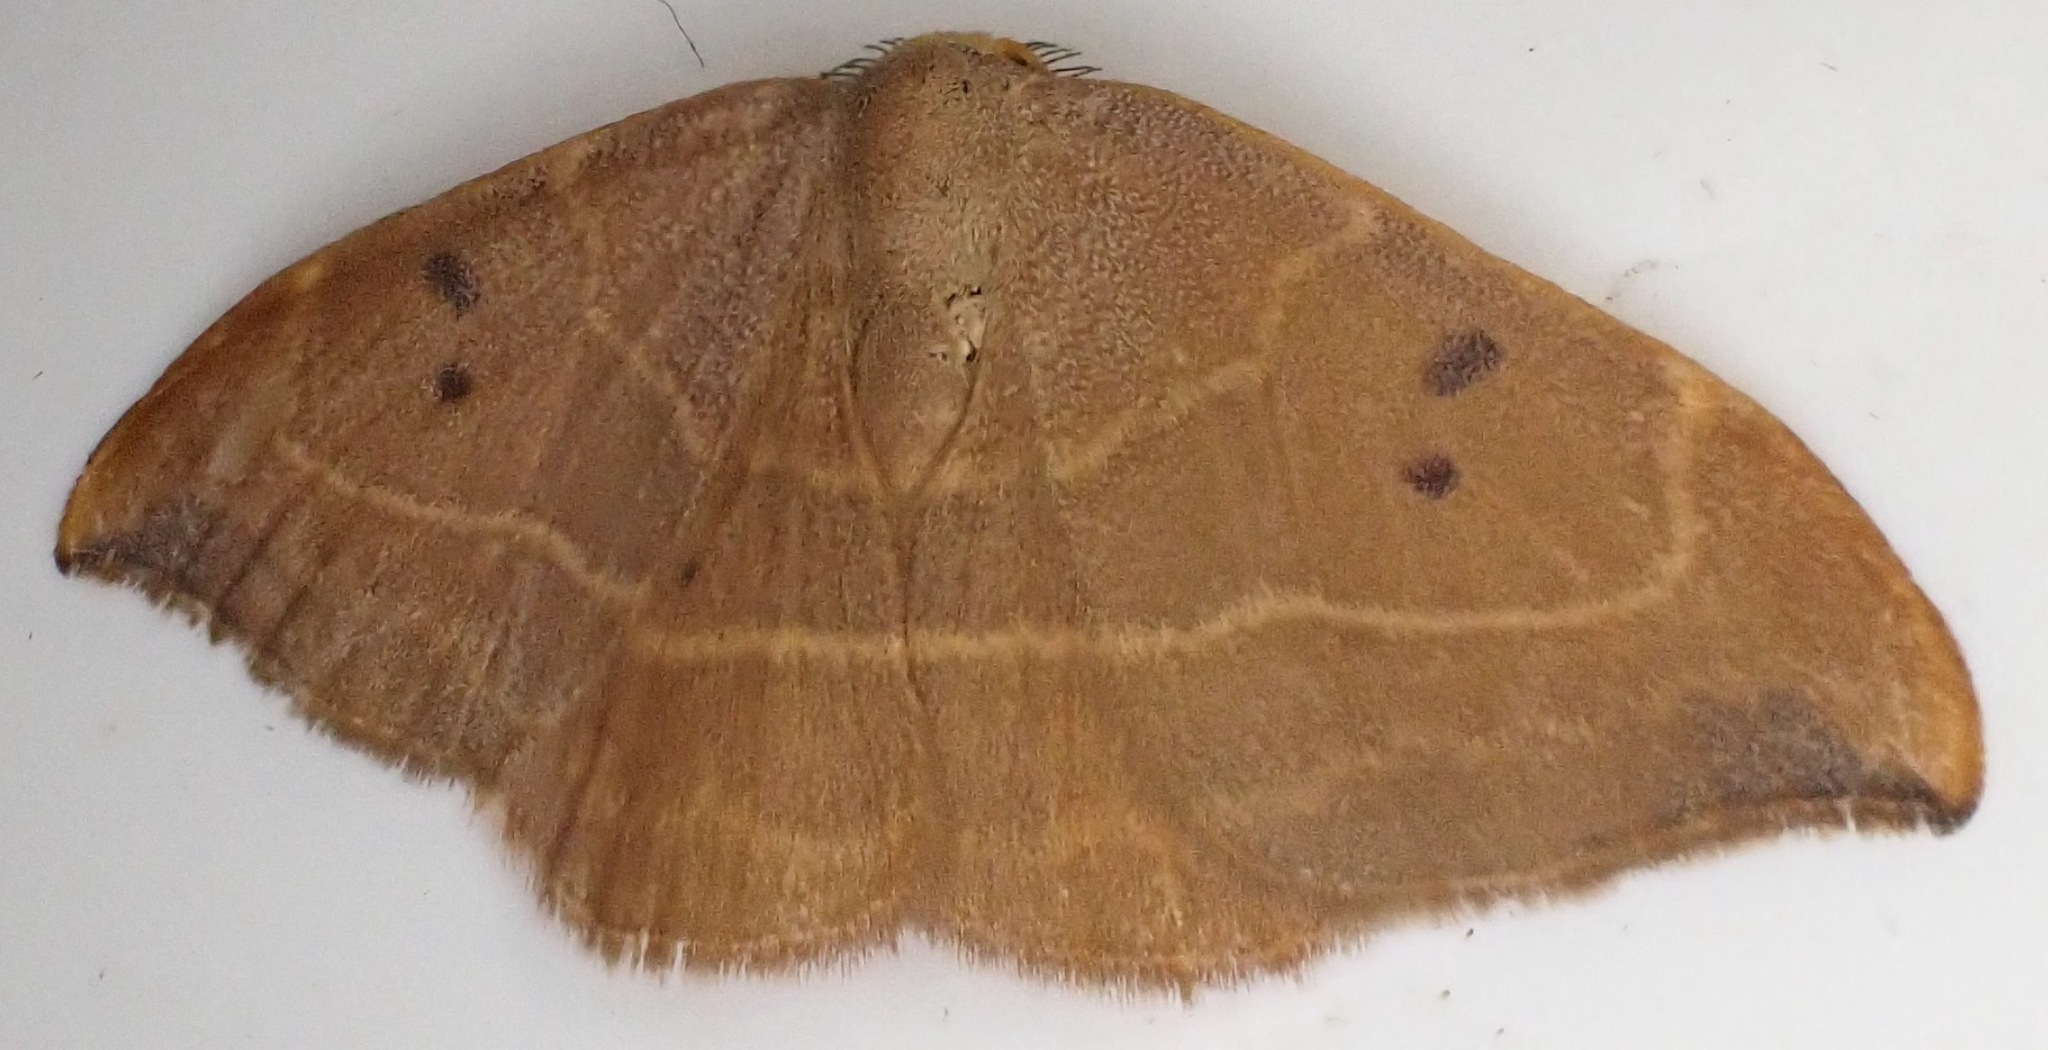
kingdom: Animalia
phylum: Arthropoda
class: Insecta
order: Lepidoptera
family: Drepanidae
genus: Watsonalla
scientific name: Watsonalla binaria
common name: Oak hook-tip
